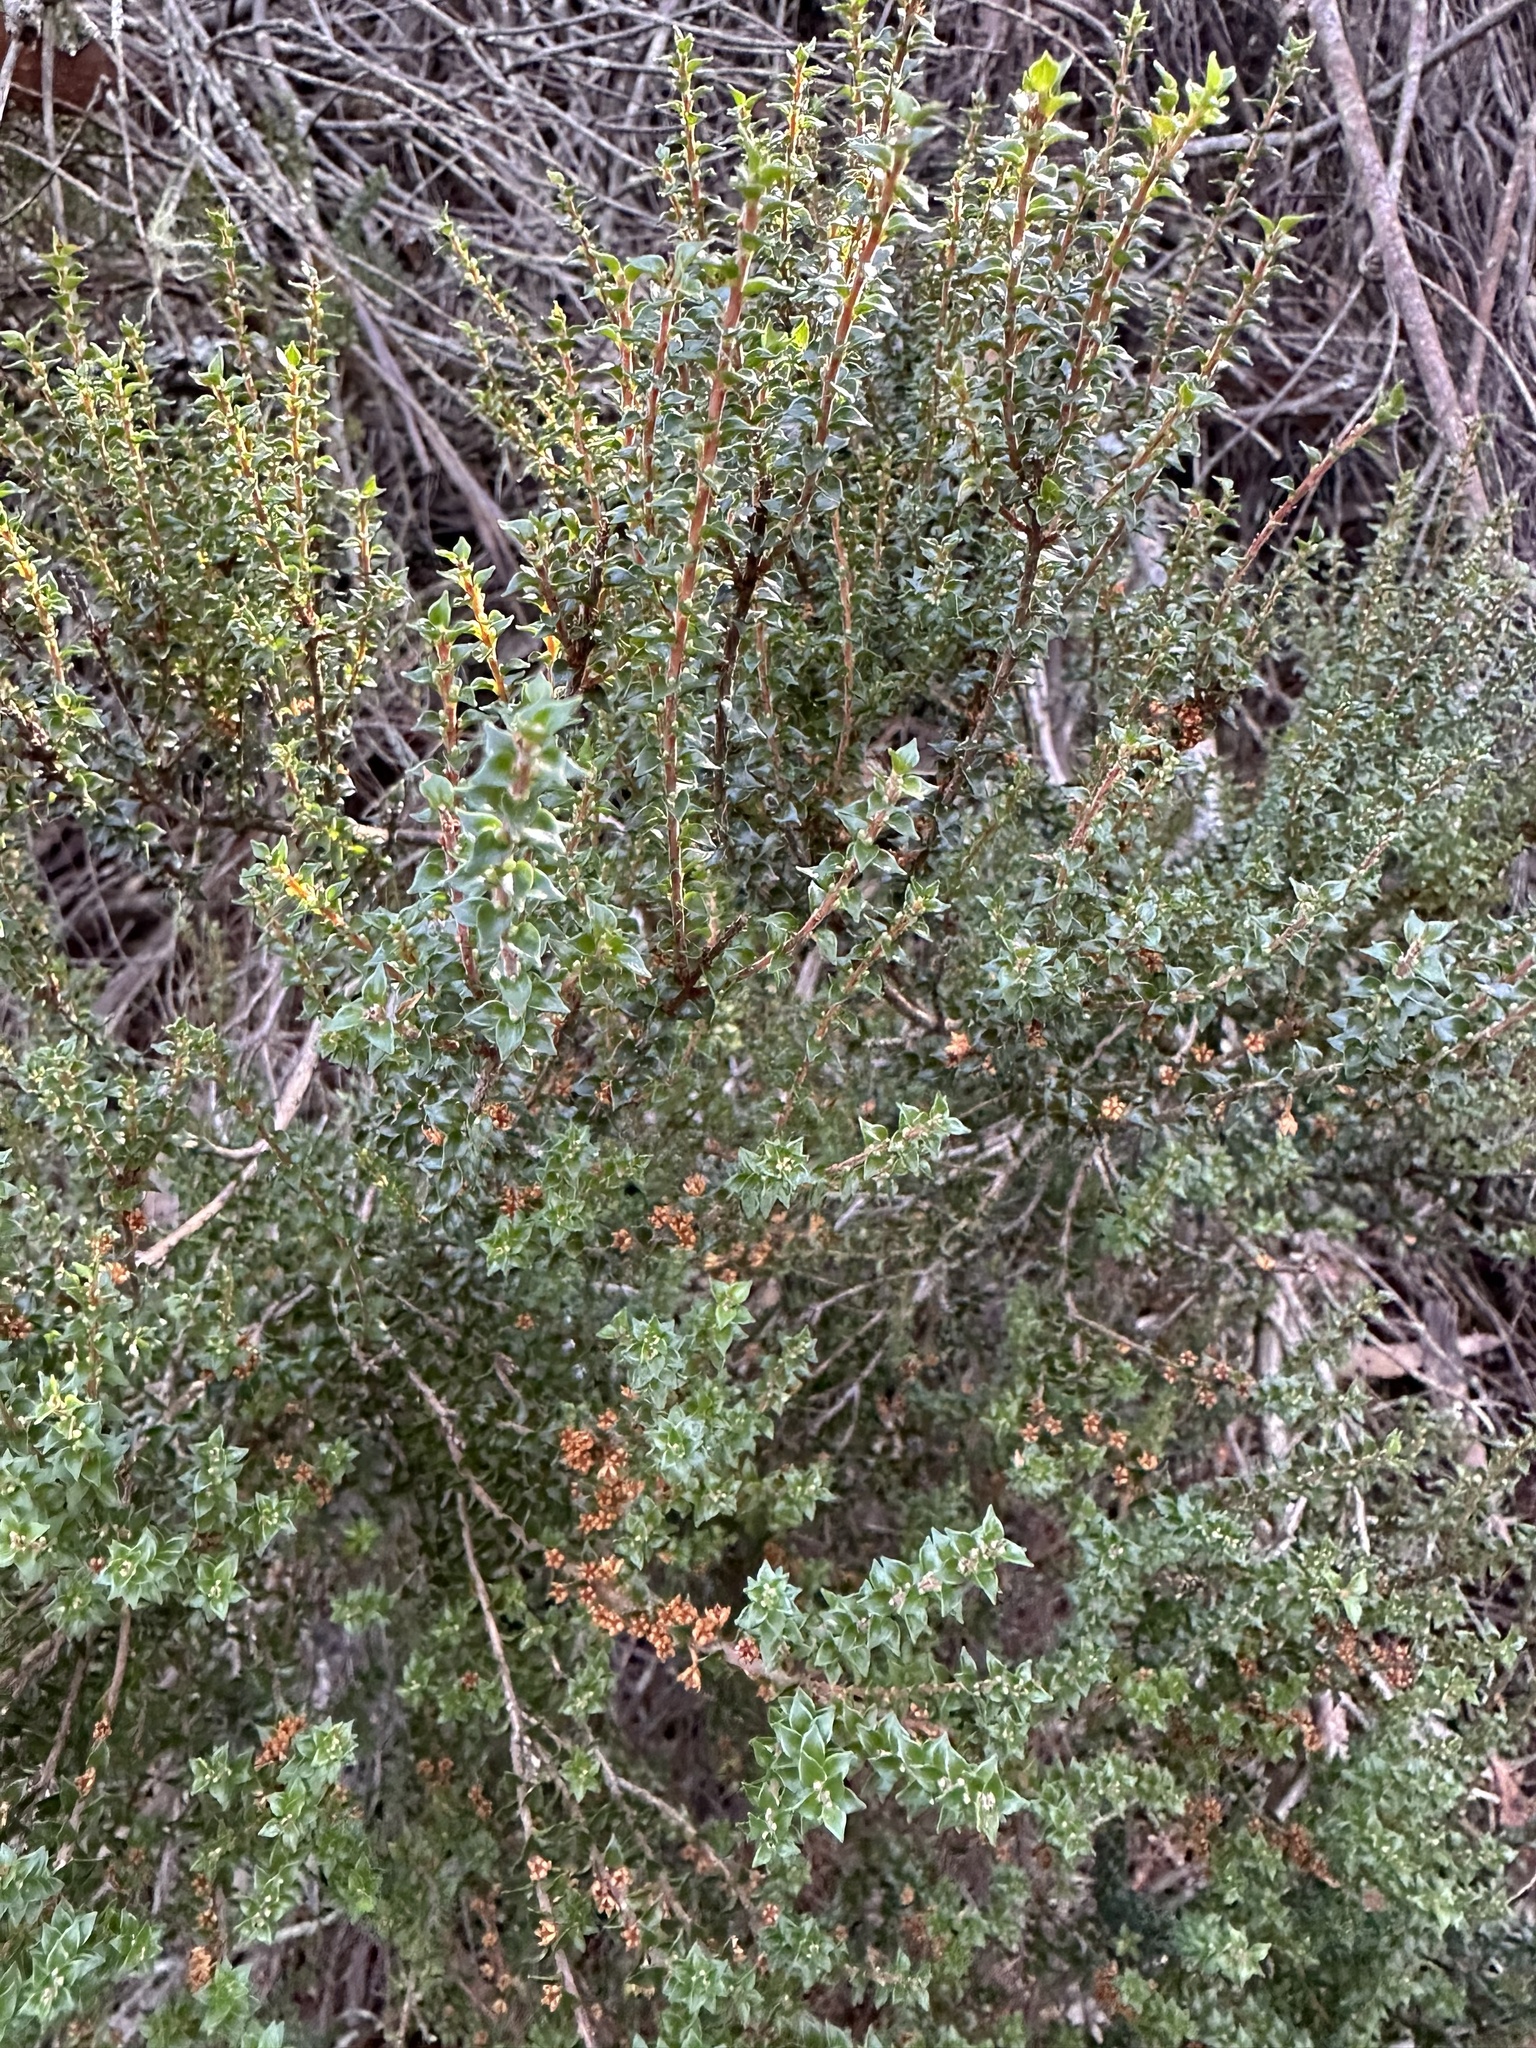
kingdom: Plantae
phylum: Tracheophyta
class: Magnoliopsida
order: Ericales
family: Ericaceae
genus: Epacris
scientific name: Epacris microphylla
